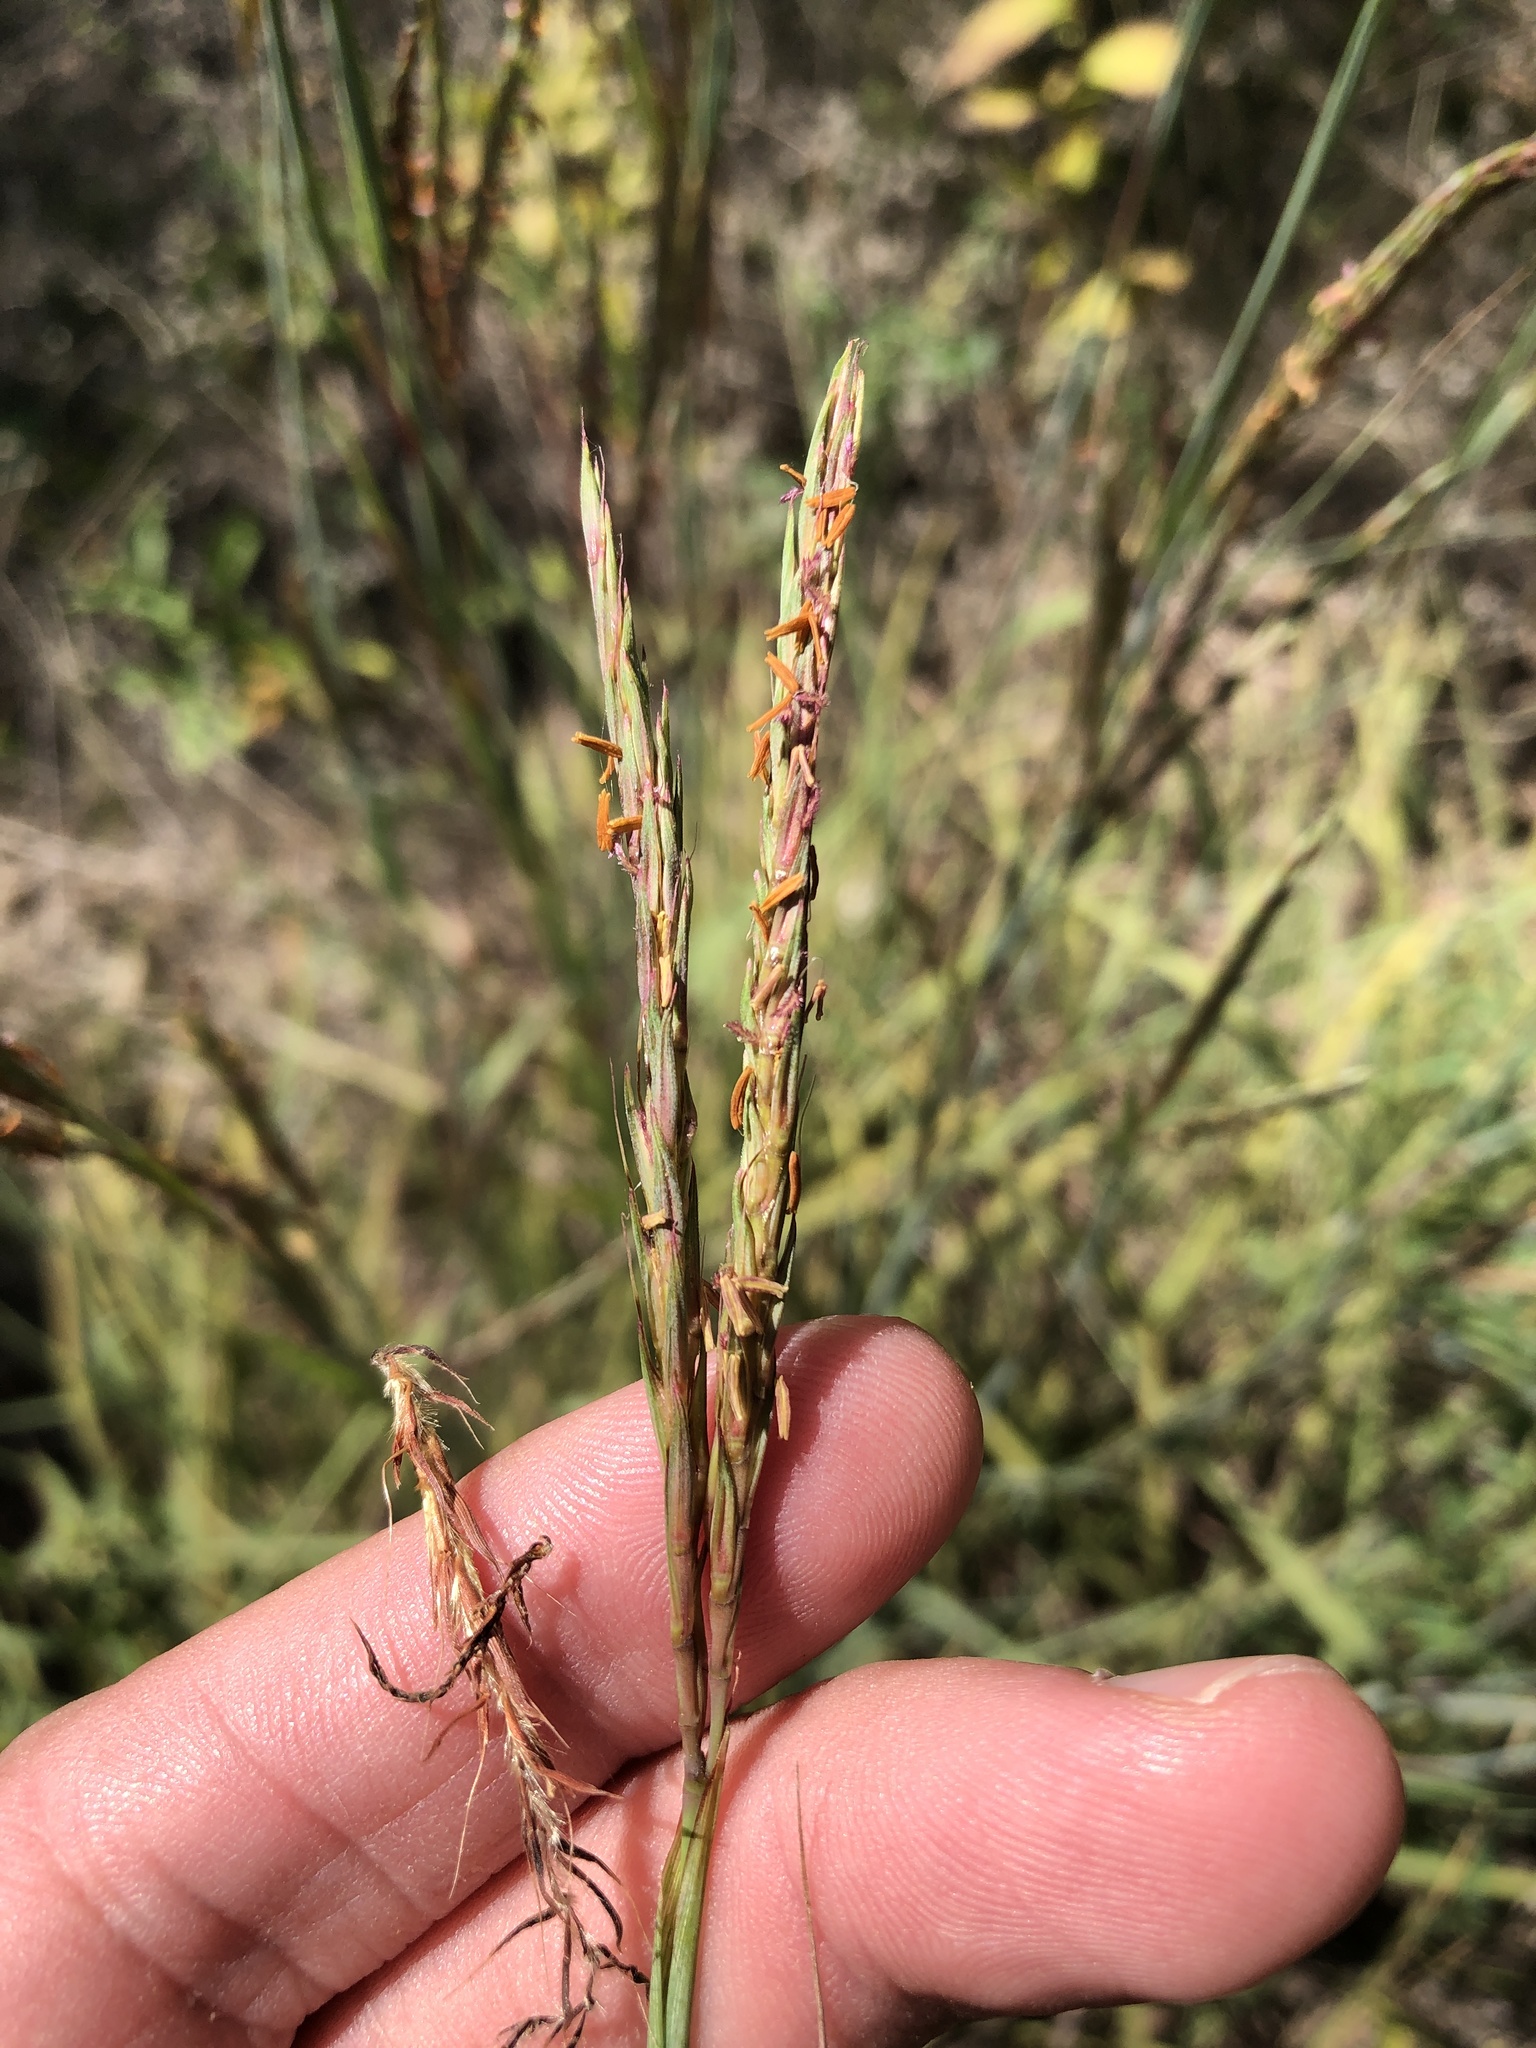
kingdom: Plantae
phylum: Tracheophyta
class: Liliopsida
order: Poales
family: Poaceae
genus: Andropogon
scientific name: Andropogon gerardi
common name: Big bluestem
